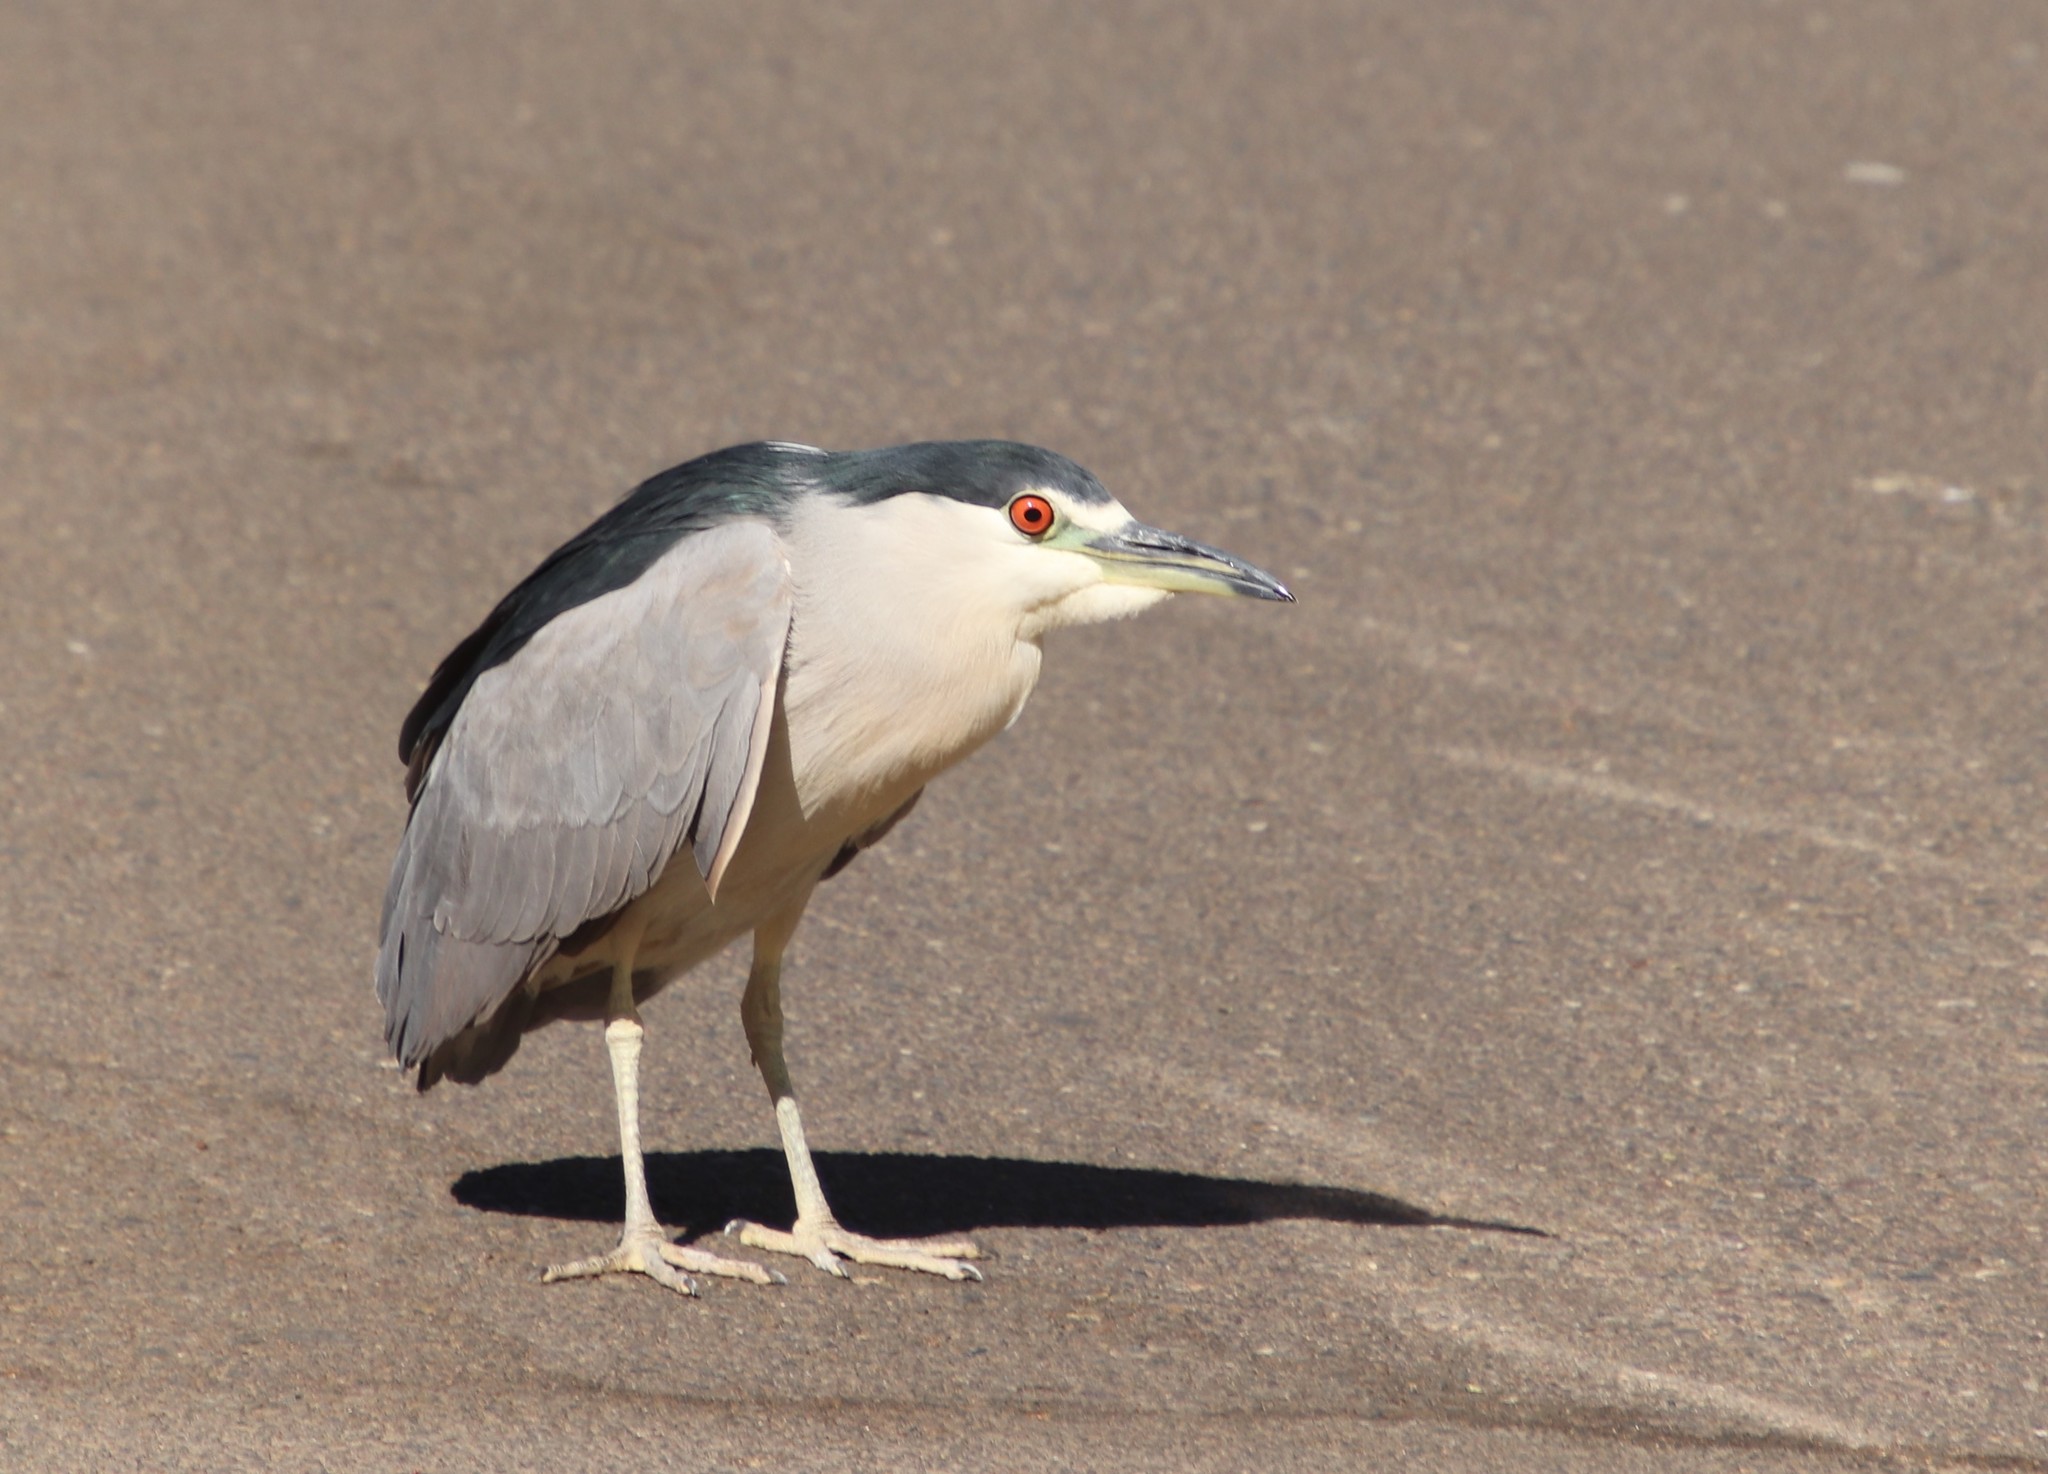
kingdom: Animalia
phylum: Chordata
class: Aves
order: Pelecaniformes
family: Ardeidae
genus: Nycticorax
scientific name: Nycticorax nycticorax
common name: Black-crowned night heron
